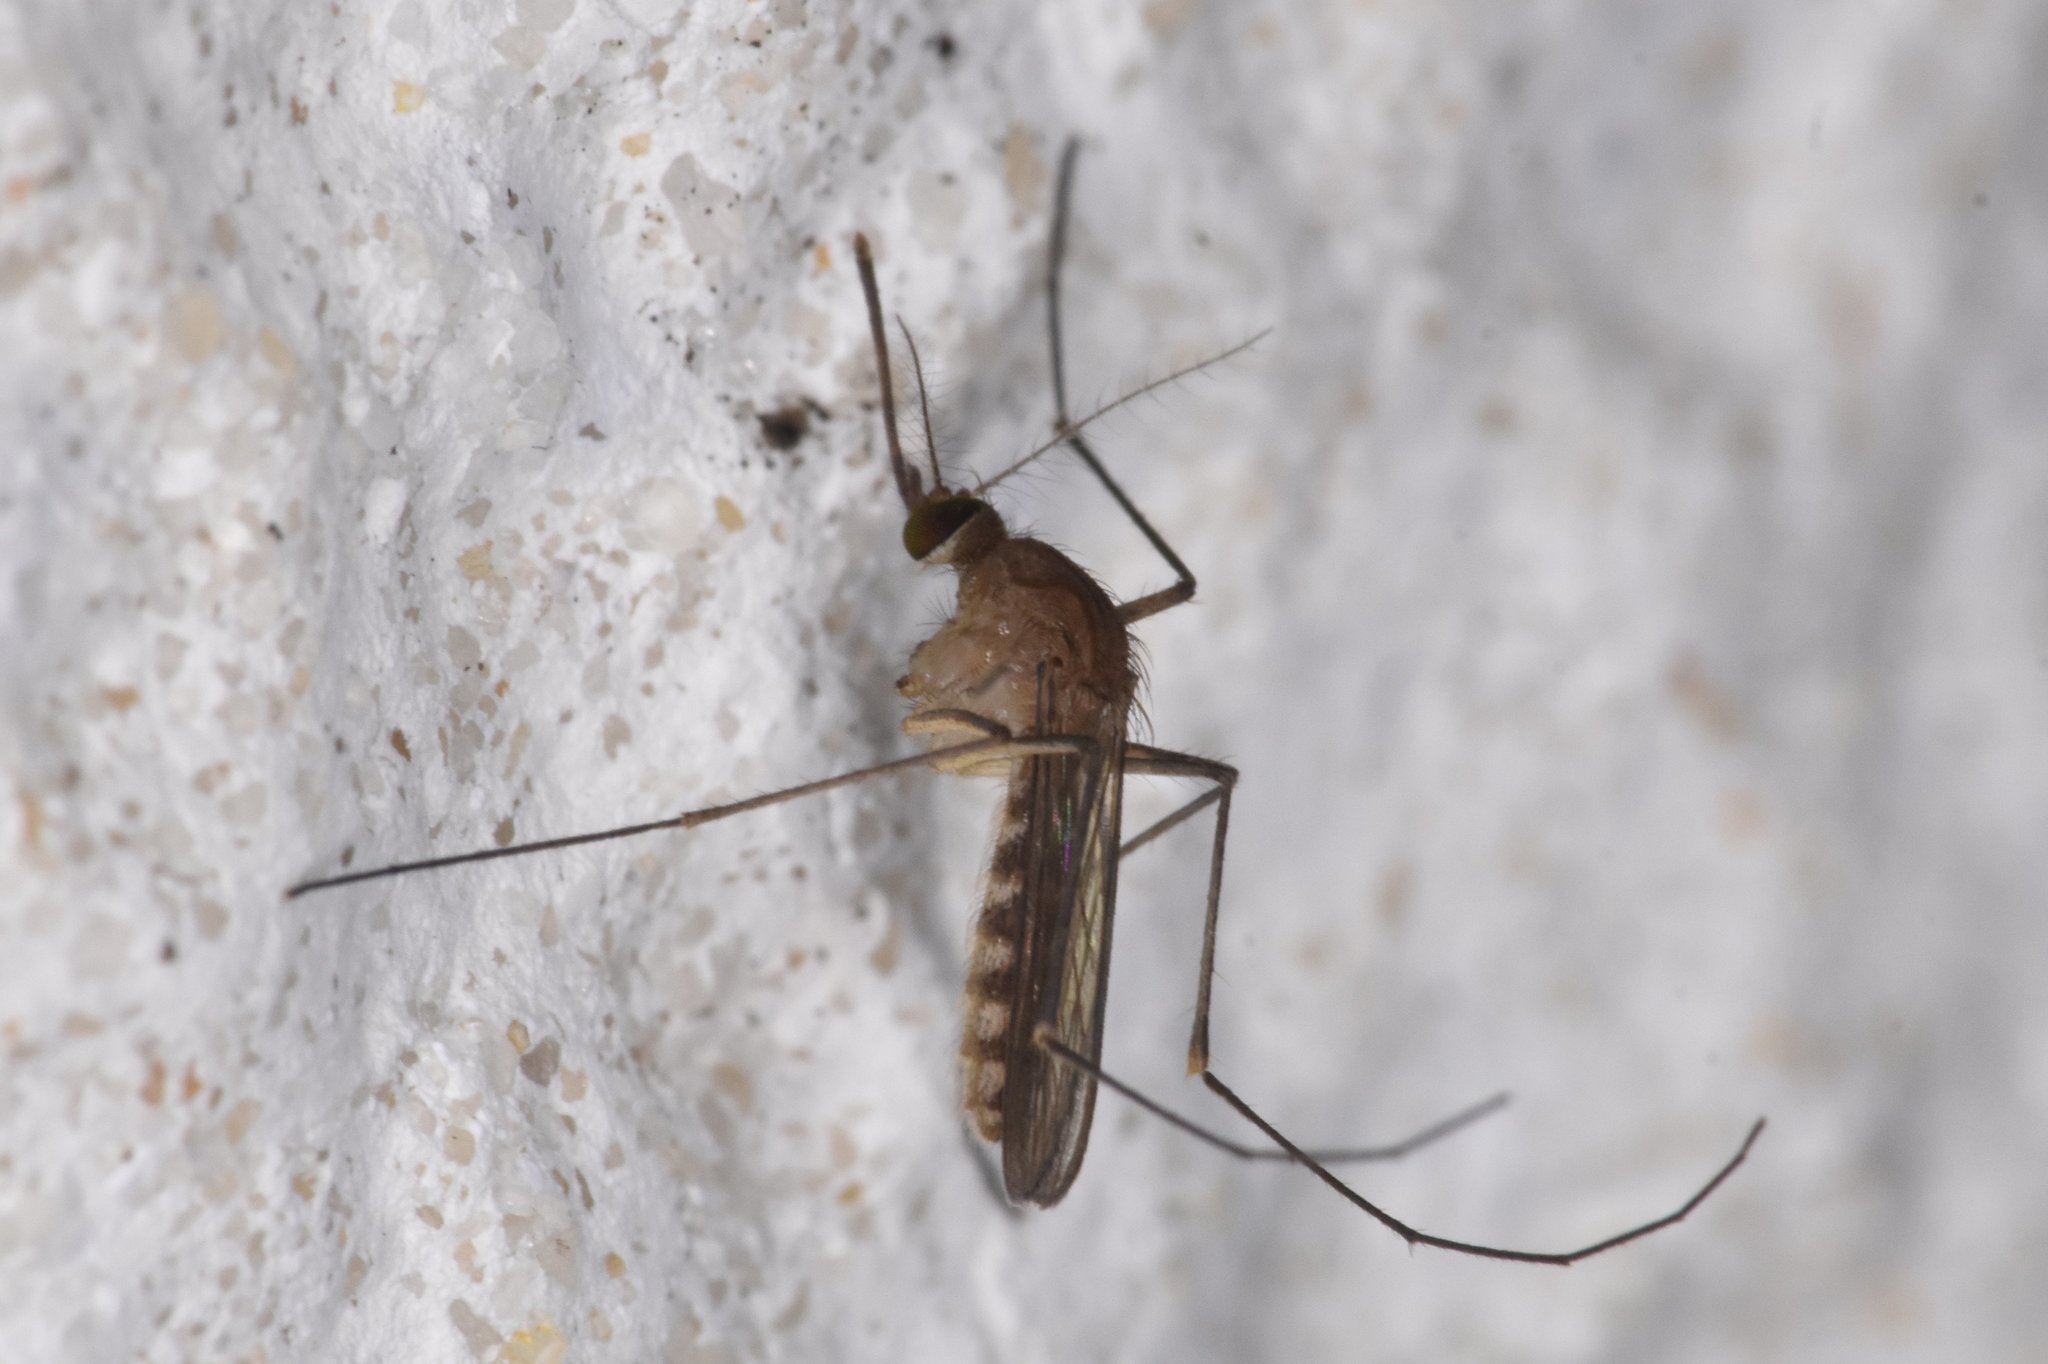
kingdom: Animalia
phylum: Arthropoda
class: Insecta
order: Diptera
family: Culicidae
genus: Culex
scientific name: Culex peccator
